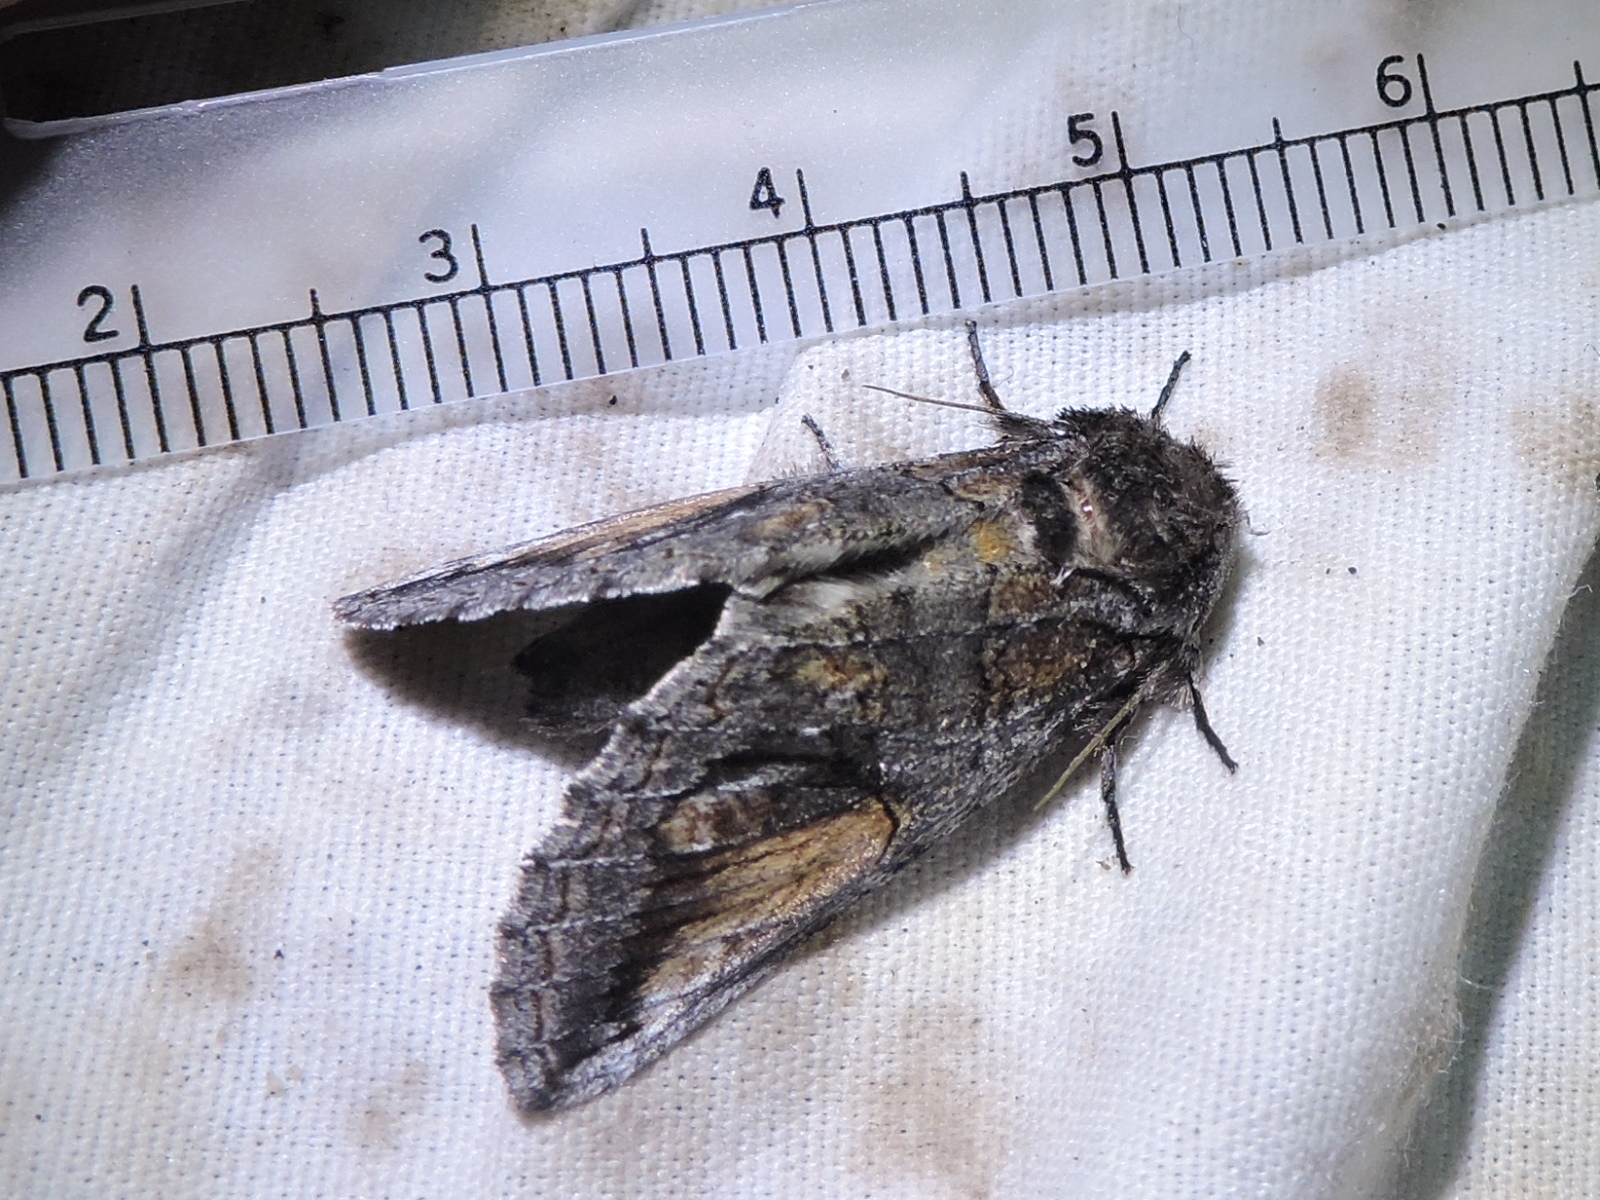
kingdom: Animalia
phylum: Arthropoda
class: Insecta
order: Lepidoptera
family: Notodontidae
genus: Heterocampa
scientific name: Heterocampa secessionis
